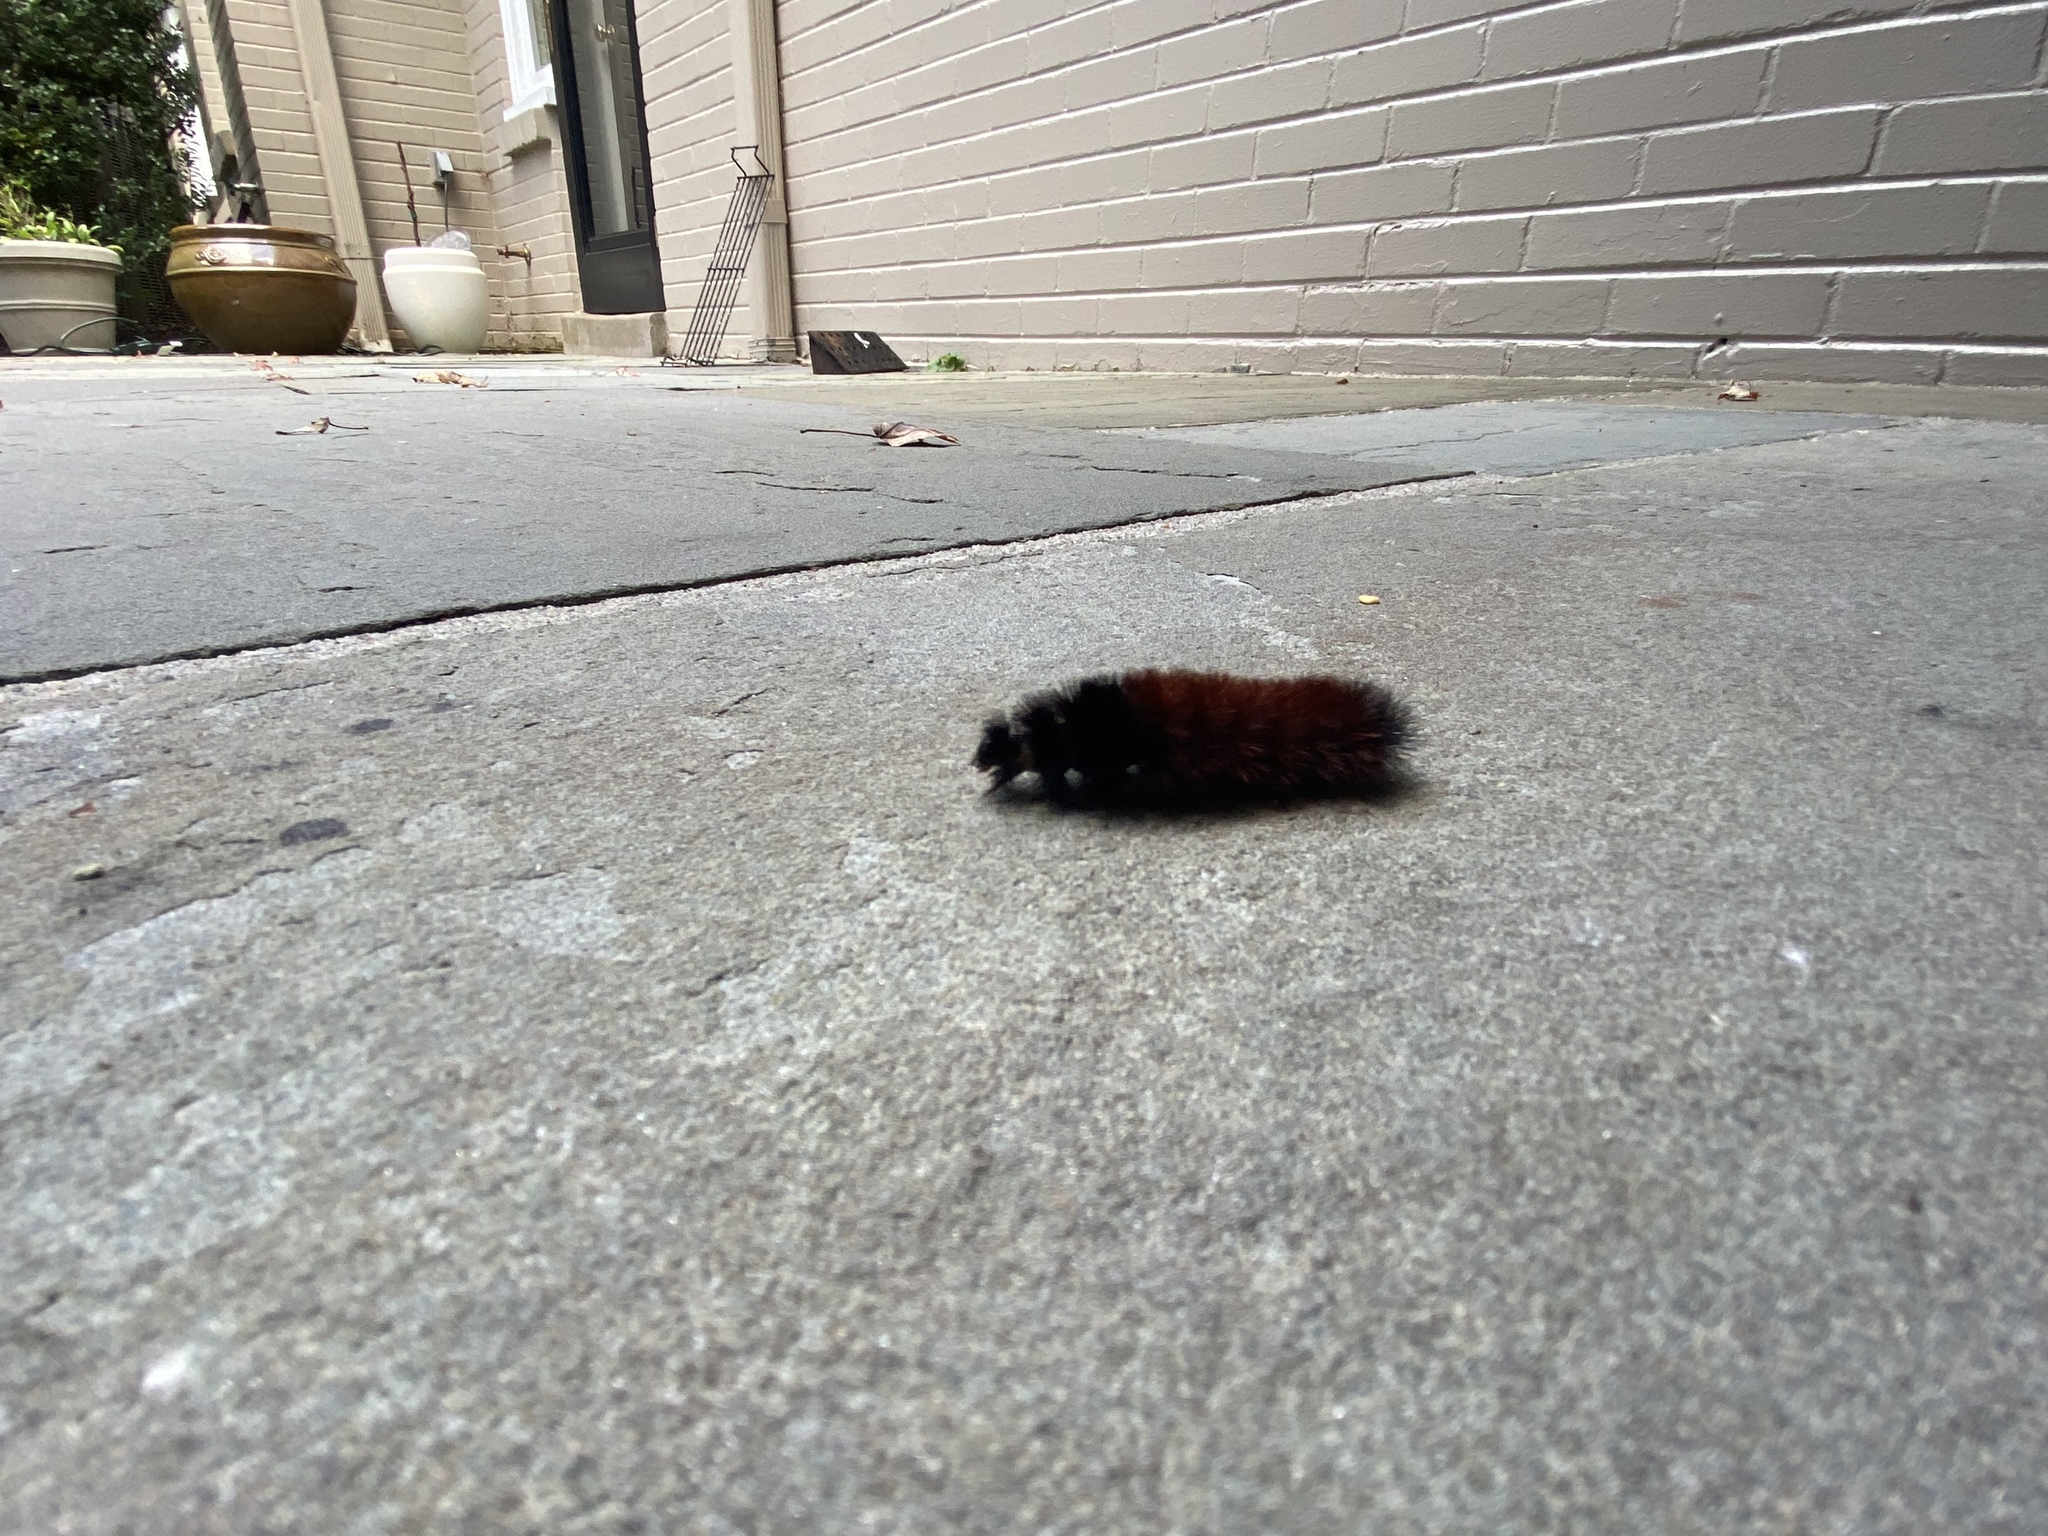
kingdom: Animalia
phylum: Arthropoda
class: Insecta
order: Lepidoptera
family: Erebidae
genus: Pyrrharctia
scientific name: Pyrrharctia isabella
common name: Isabella tiger moth
